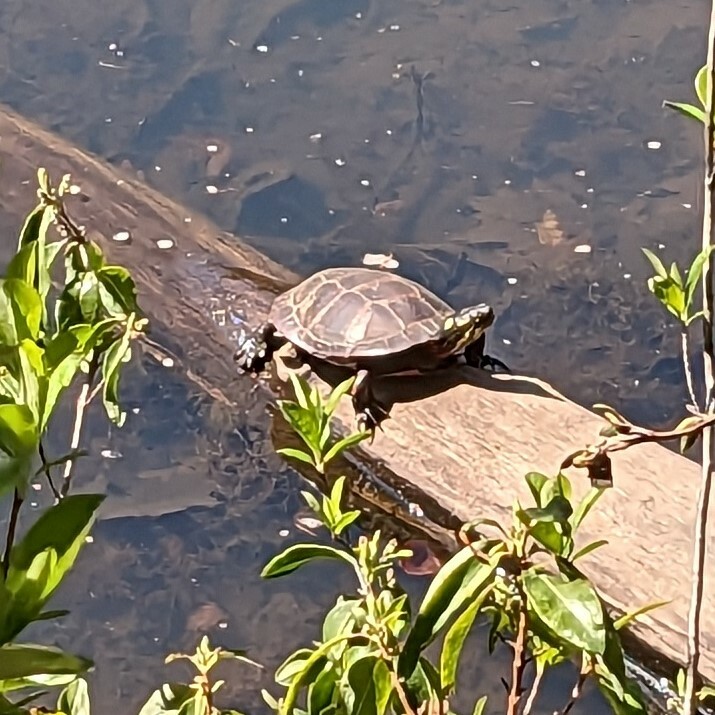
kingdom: Animalia
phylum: Chordata
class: Testudines
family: Emydidae
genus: Chrysemys
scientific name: Chrysemys picta
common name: Painted turtle
